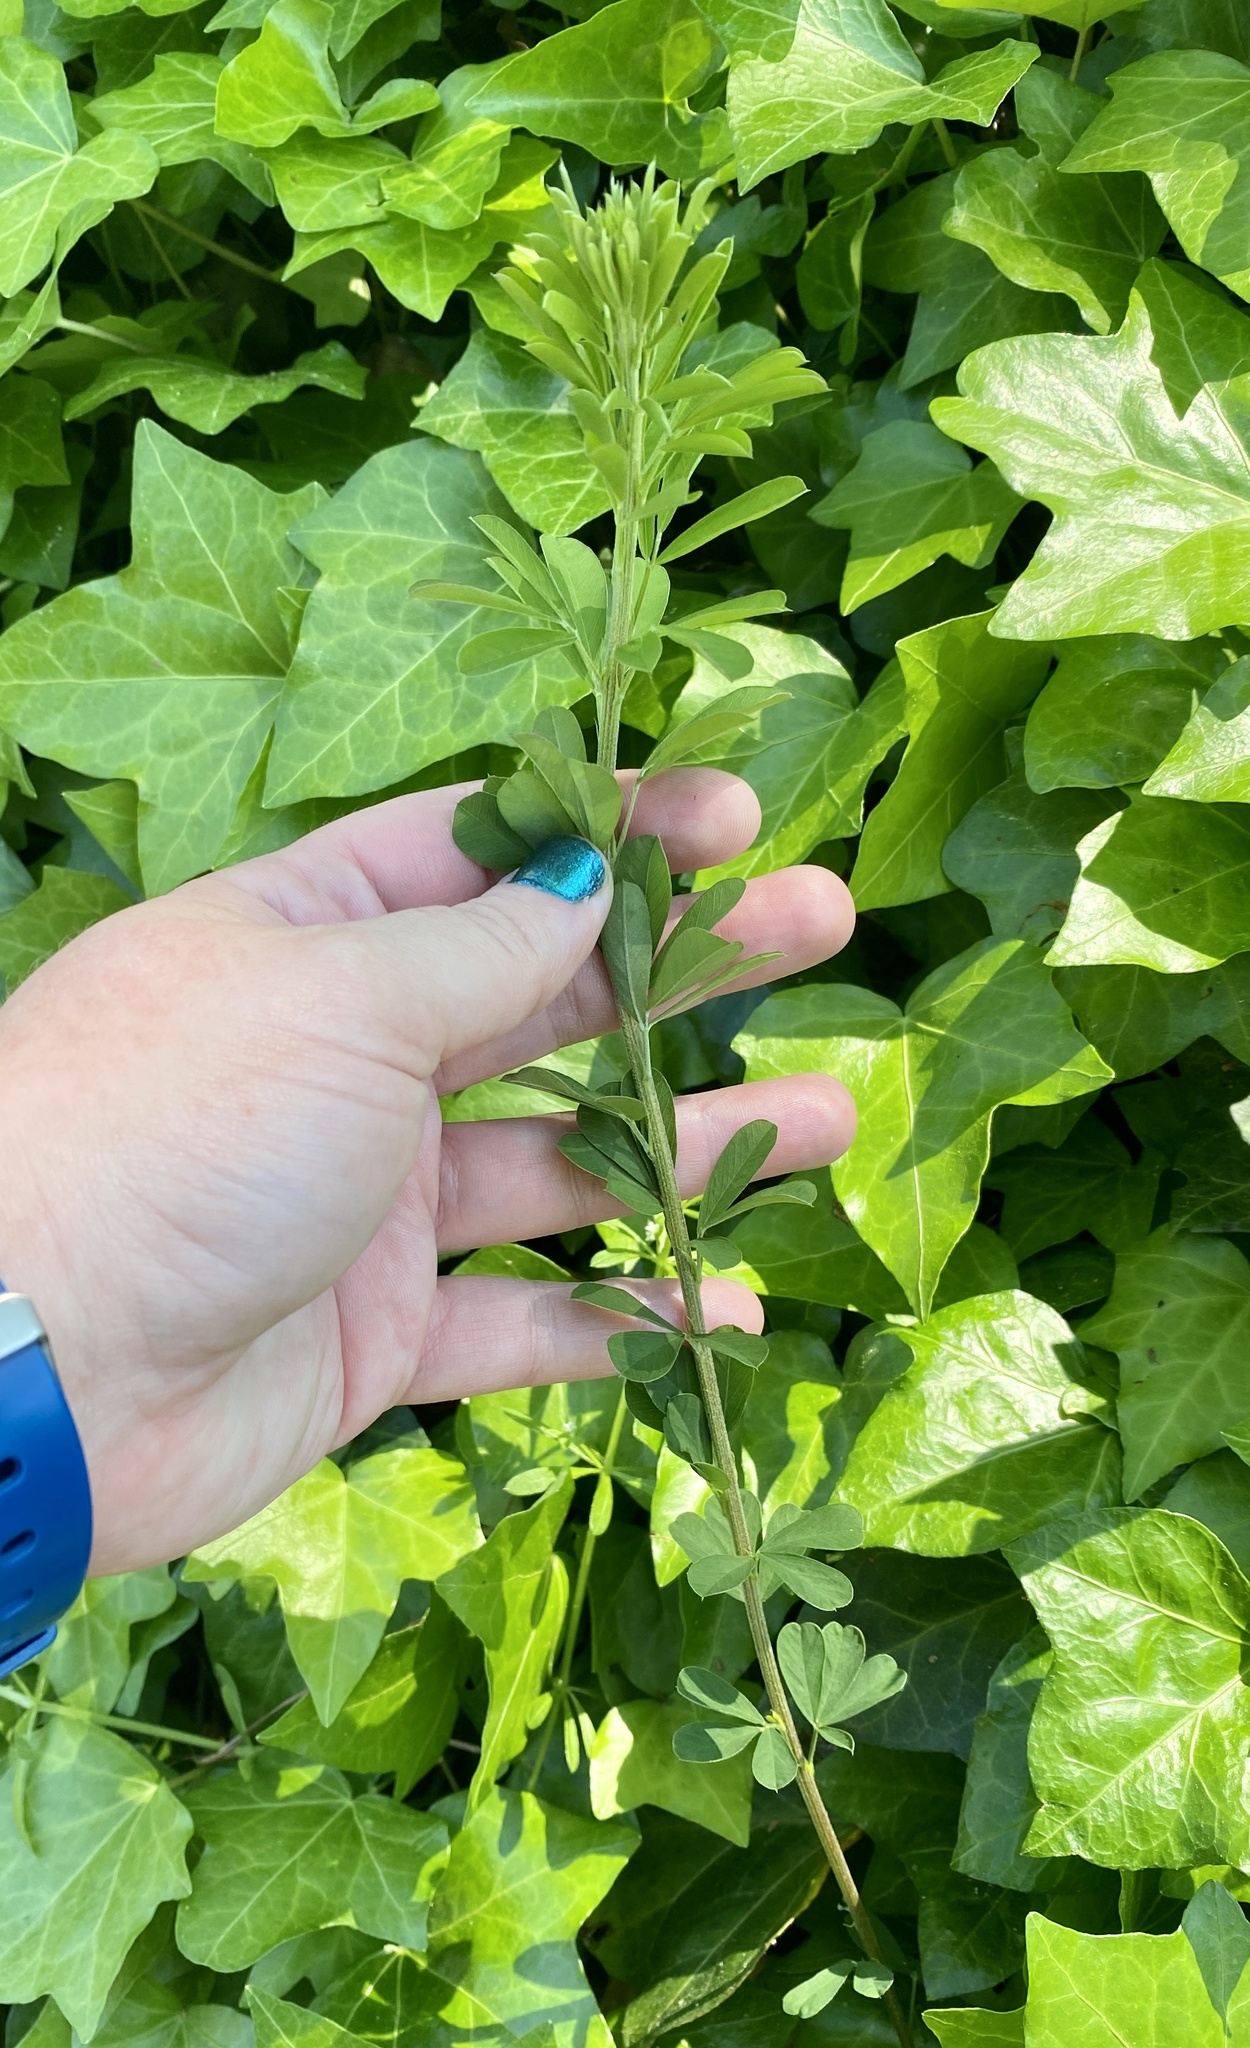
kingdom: Plantae
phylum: Tracheophyta
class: Magnoliopsida
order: Fabales
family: Fabaceae
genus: Lespedeza
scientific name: Lespedeza cuneata
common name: Chinese bush-clover
